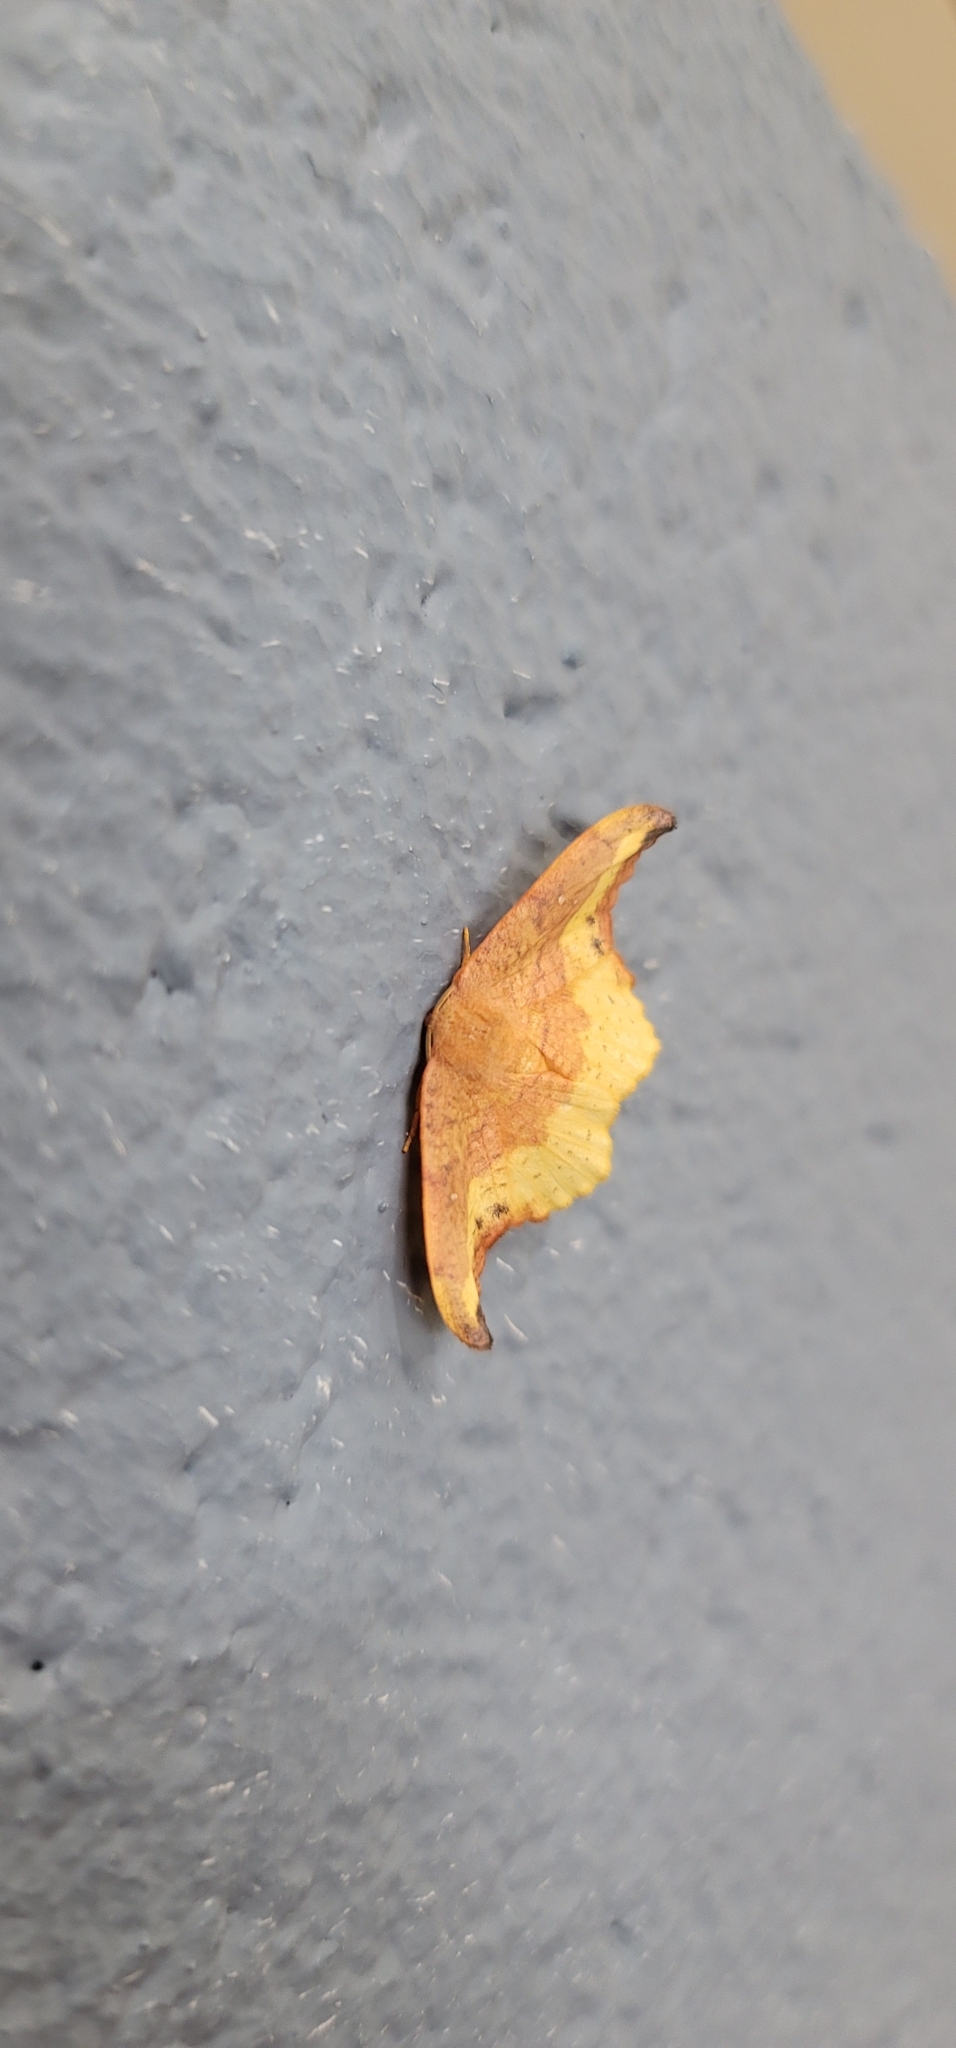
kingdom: Animalia
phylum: Arthropoda
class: Insecta
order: Lepidoptera
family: Drepanidae
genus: Oreta
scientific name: Oreta rosea
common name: Rose hooktip
